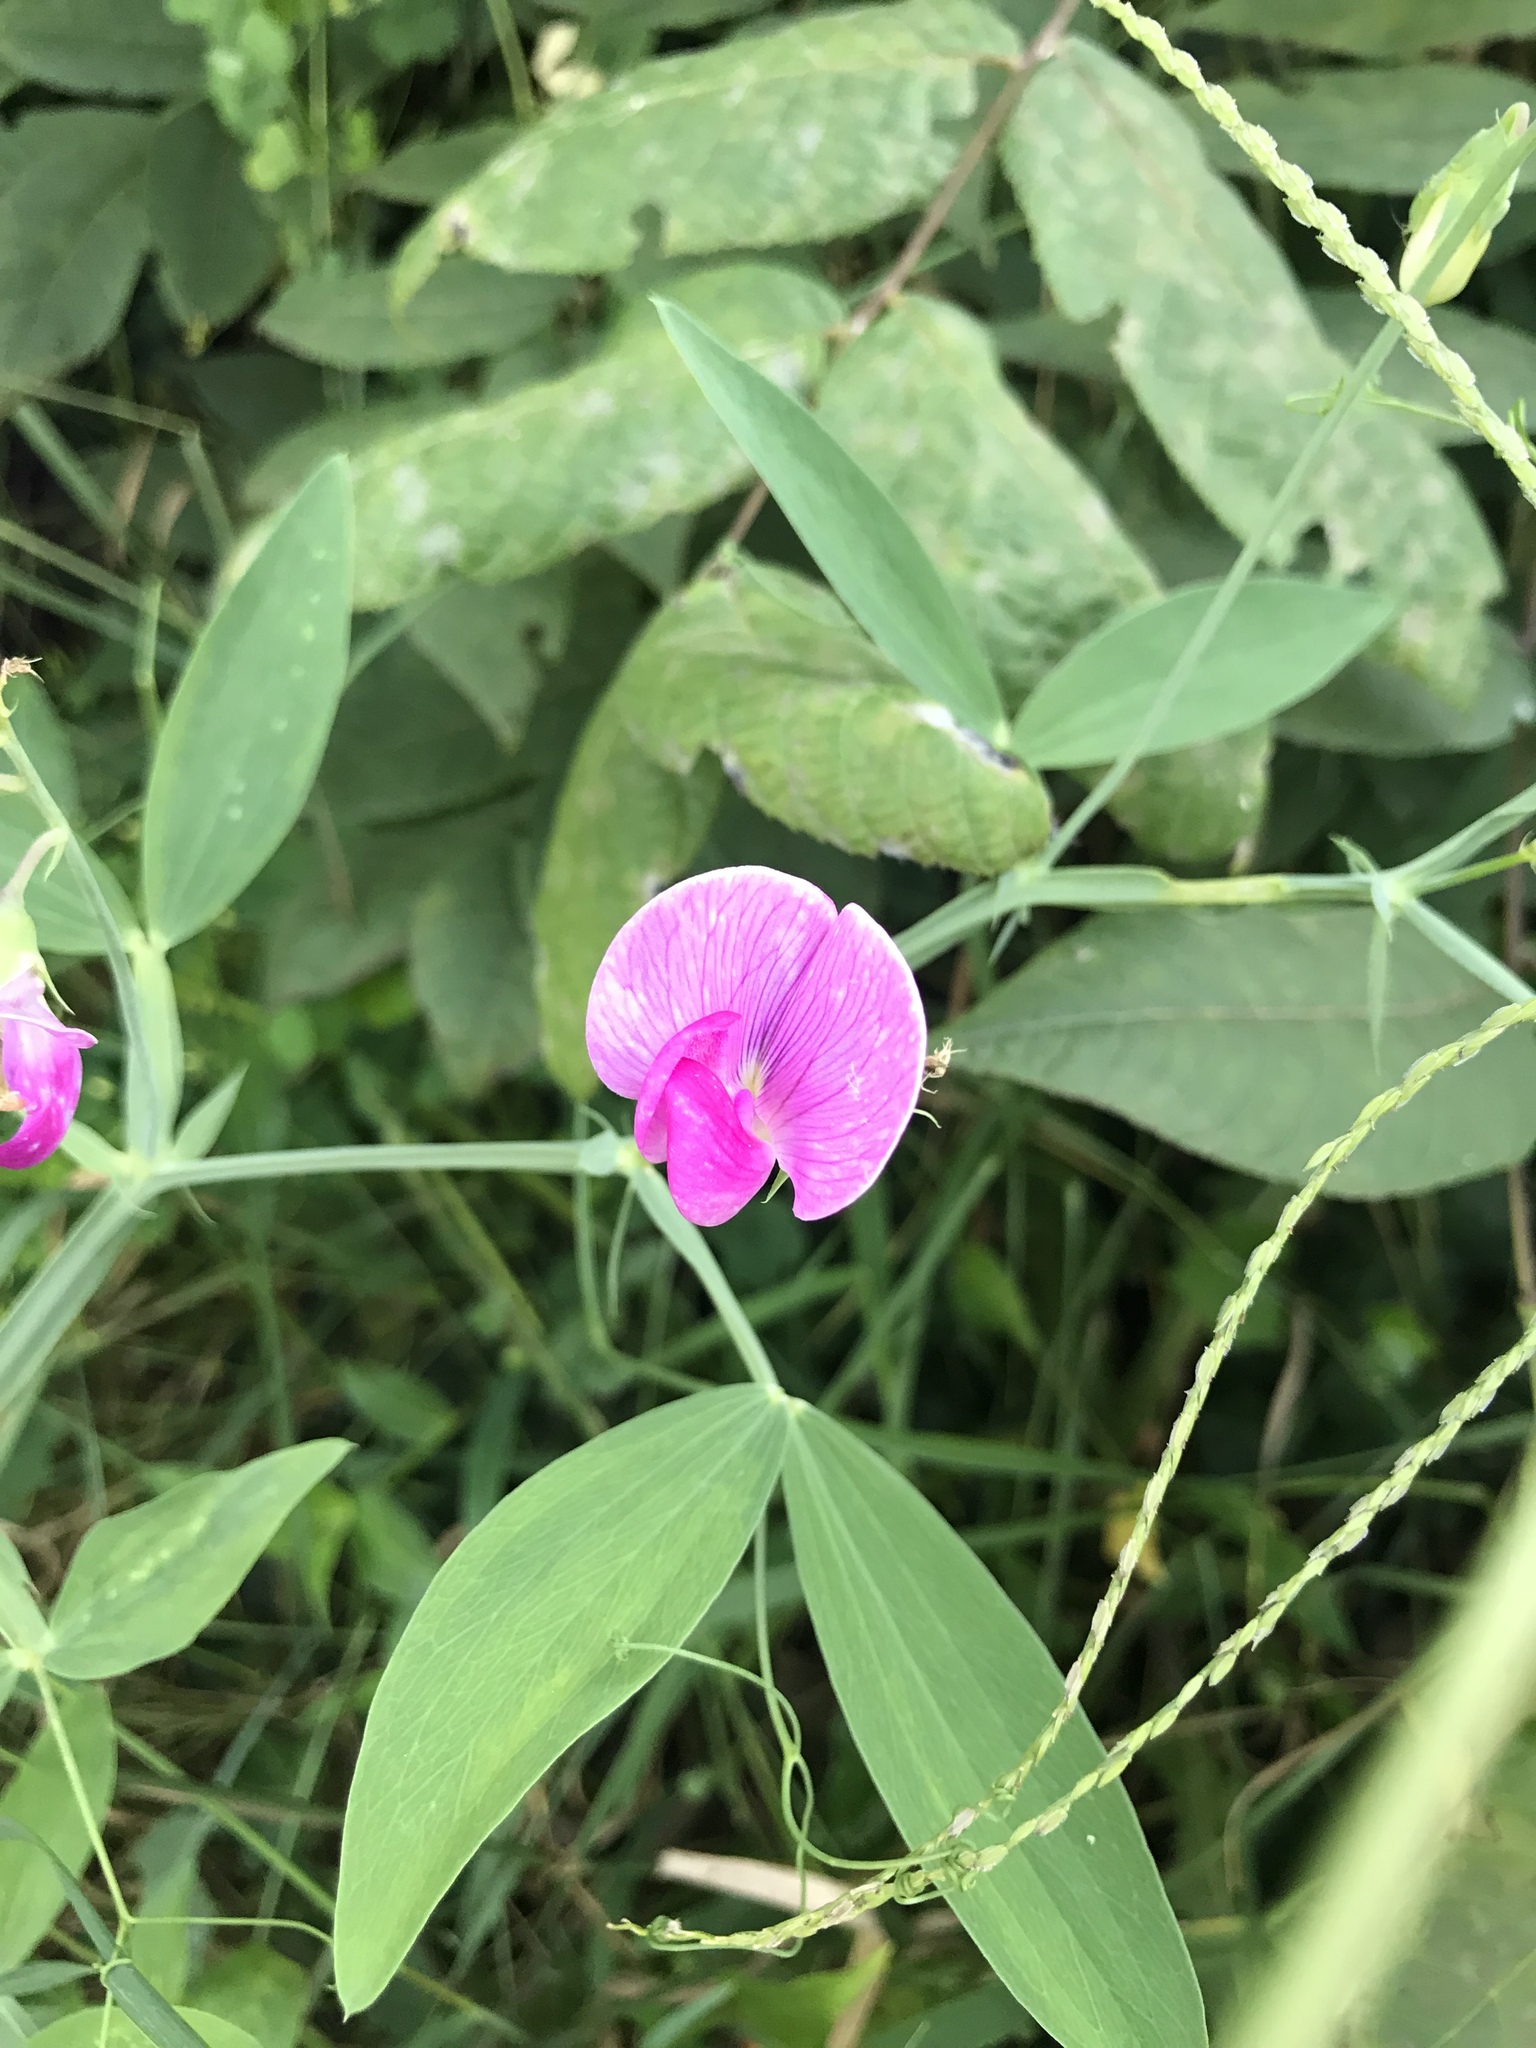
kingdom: Plantae
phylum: Tracheophyta
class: Magnoliopsida
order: Fabales
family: Fabaceae
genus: Lathyrus
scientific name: Lathyrus latifolius
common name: Perennial pea
